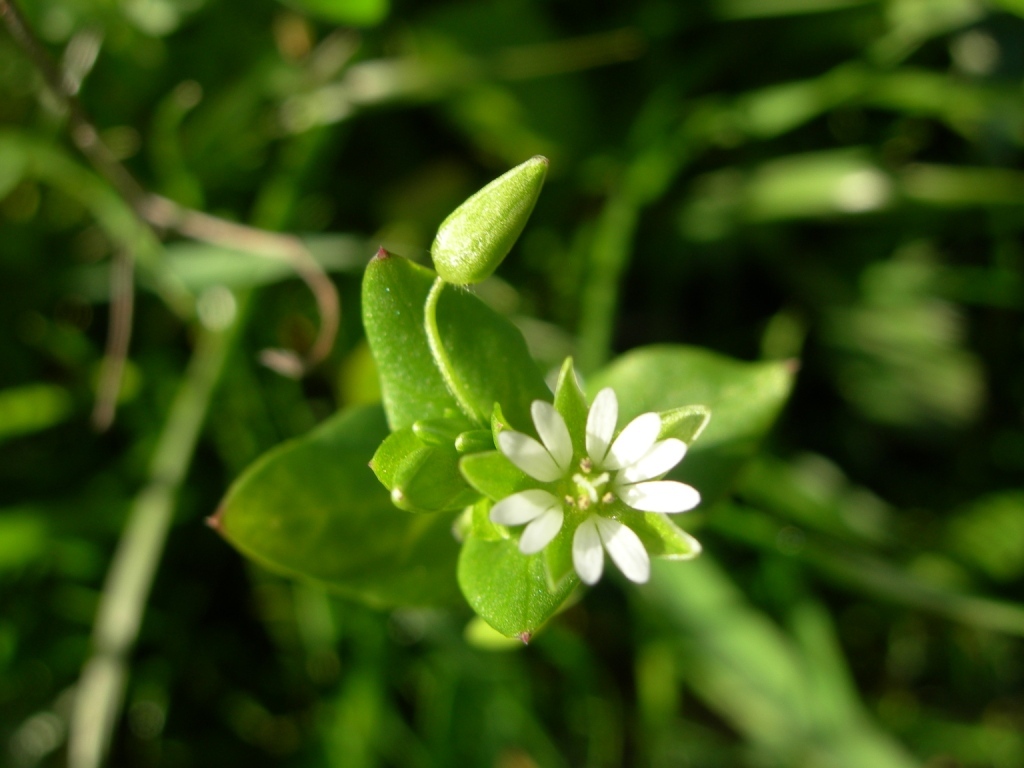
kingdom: Plantae
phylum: Tracheophyta
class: Magnoliopsida
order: Caryophyllales
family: Caryophyllaceae
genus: Stellaria
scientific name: Stellaria media
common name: Common chickweed
